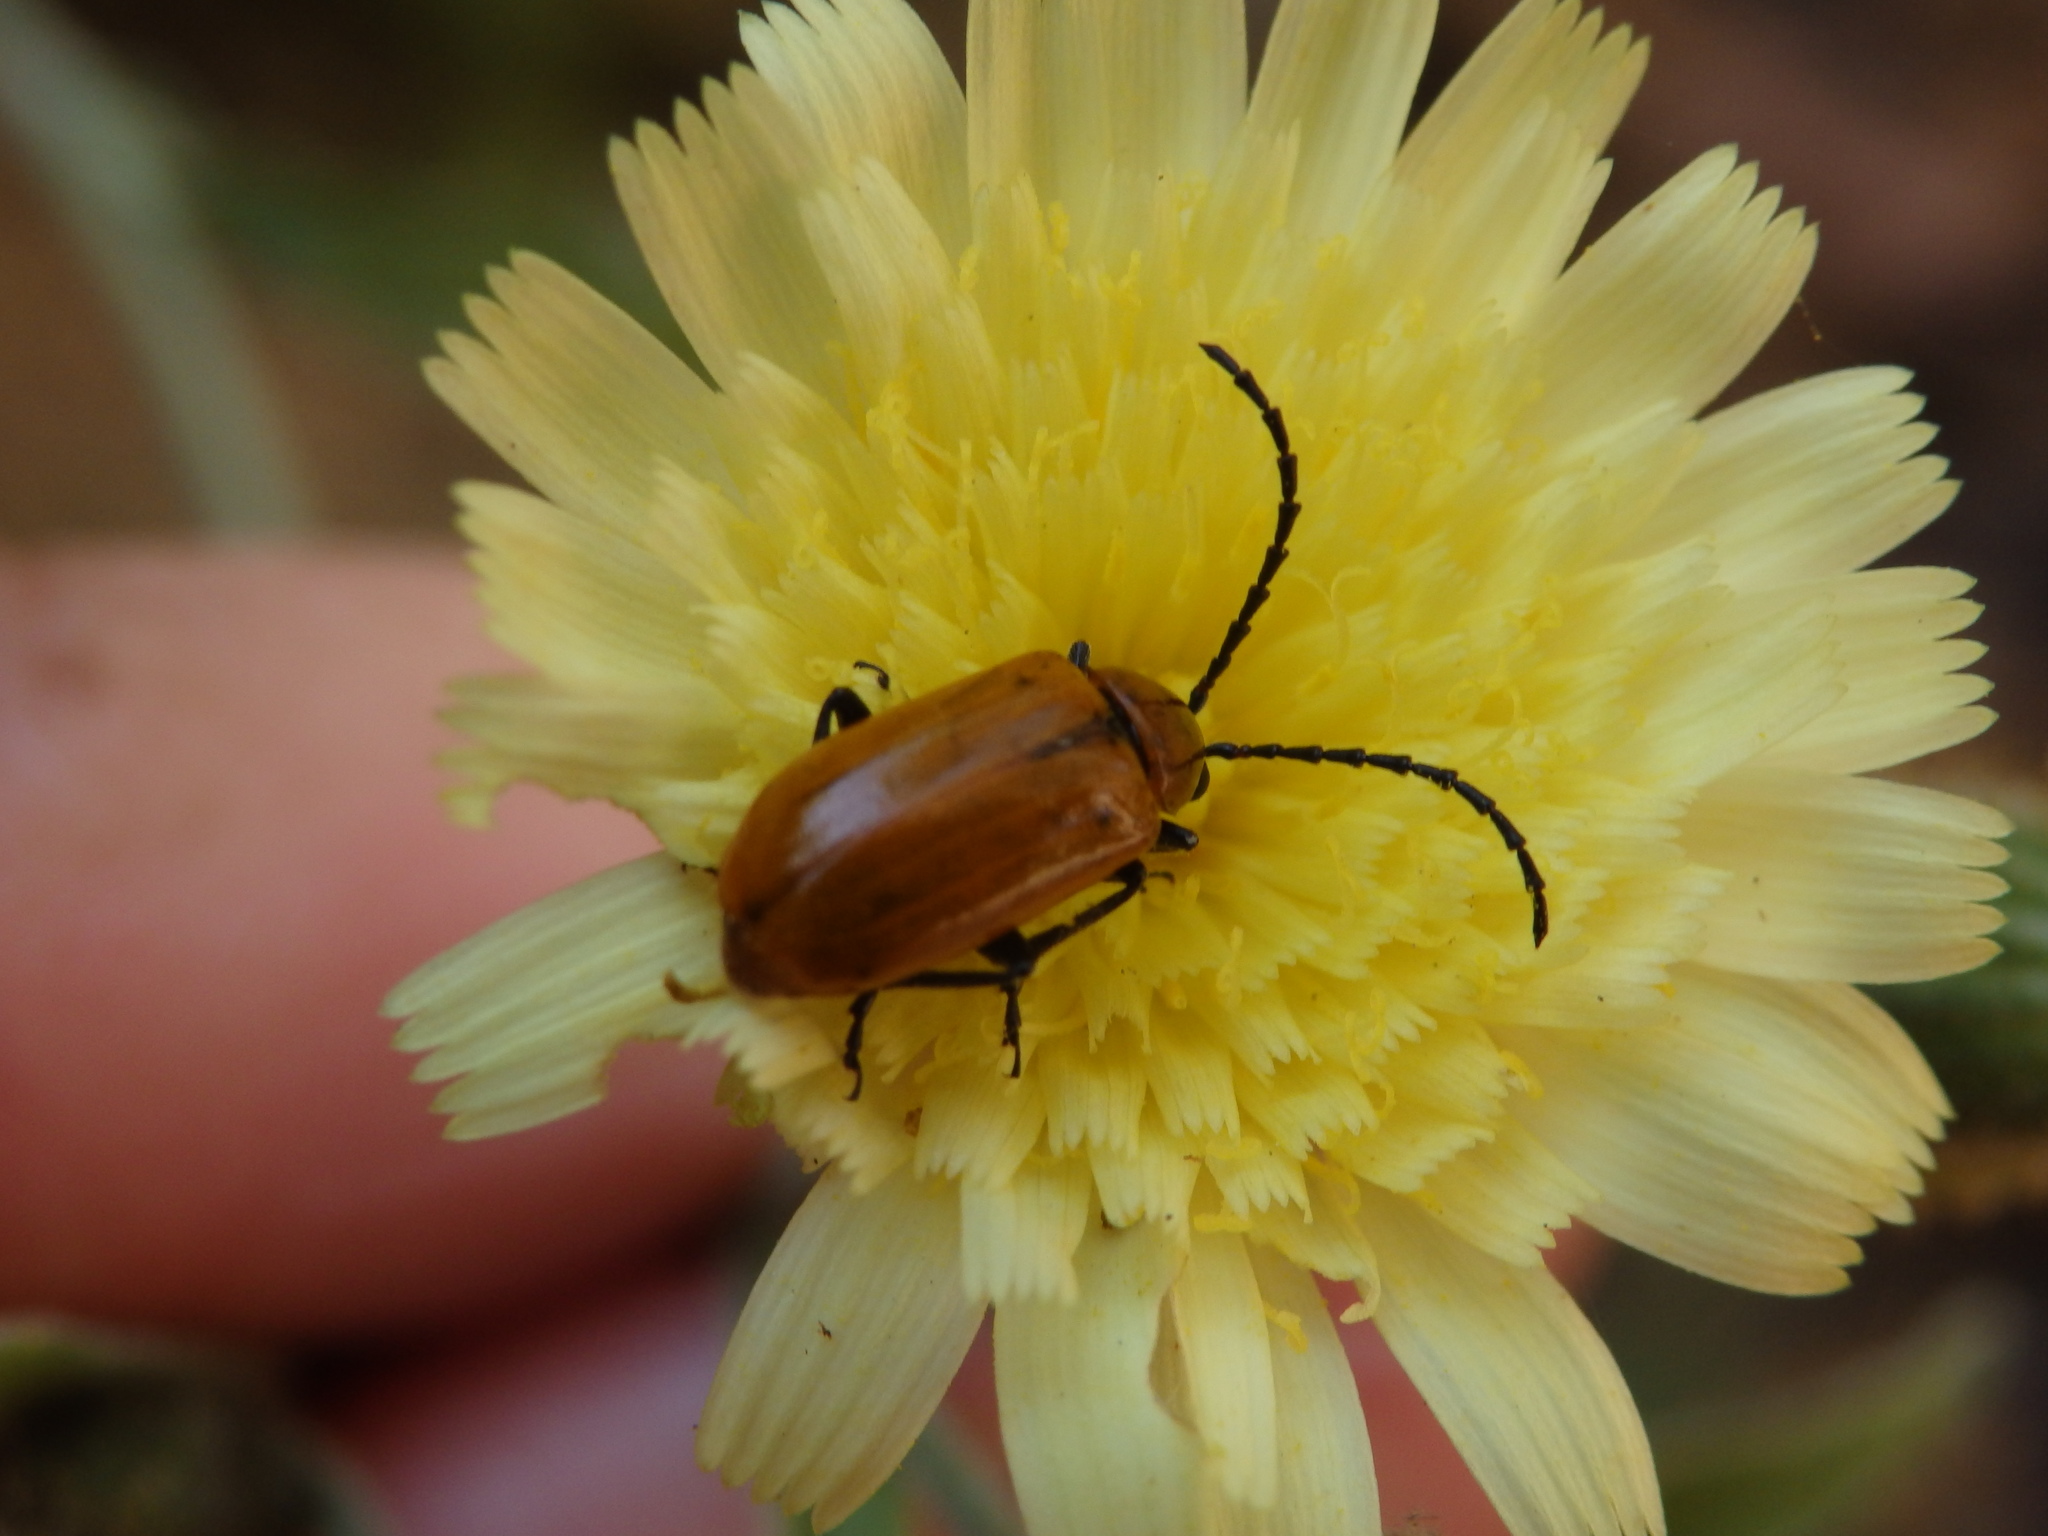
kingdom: Animalia
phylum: Arthropoda
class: Insecta
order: Coleoptera
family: Chrysomelidae
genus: Exosoma
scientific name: Exosoma lusitanicum
